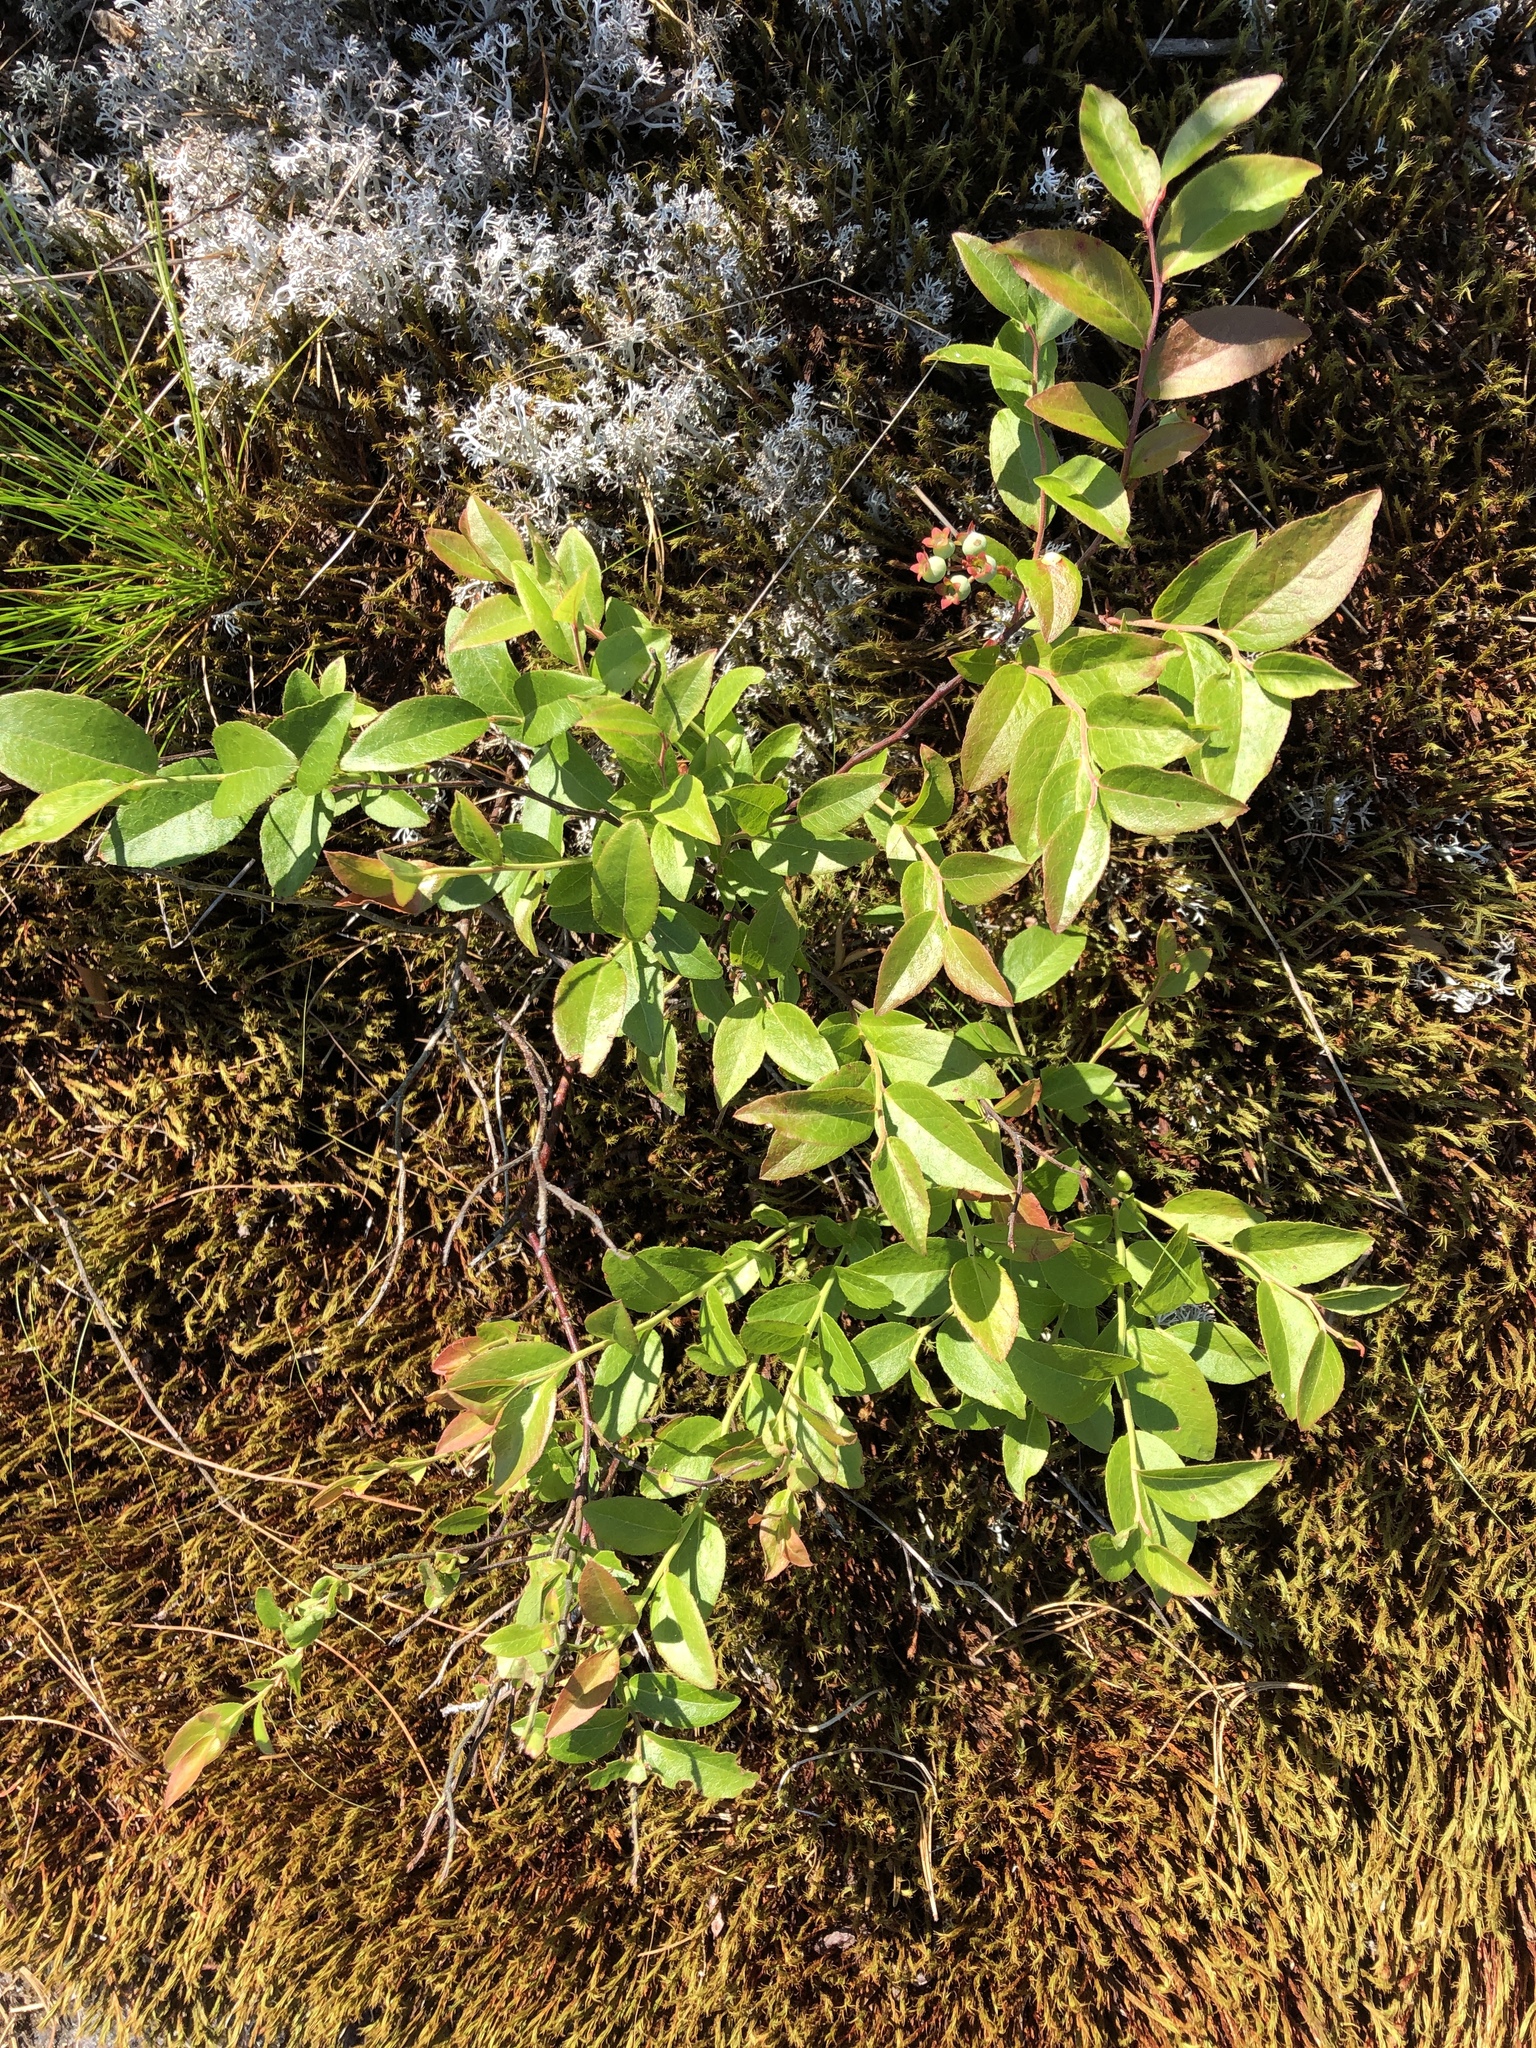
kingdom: Plantae
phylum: Tracheophyta
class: Magnoliopsida
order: Ericales
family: Ericaceae
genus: Vaccinium
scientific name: Vaccinium angustifolium
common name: Early lowbush blueberry
